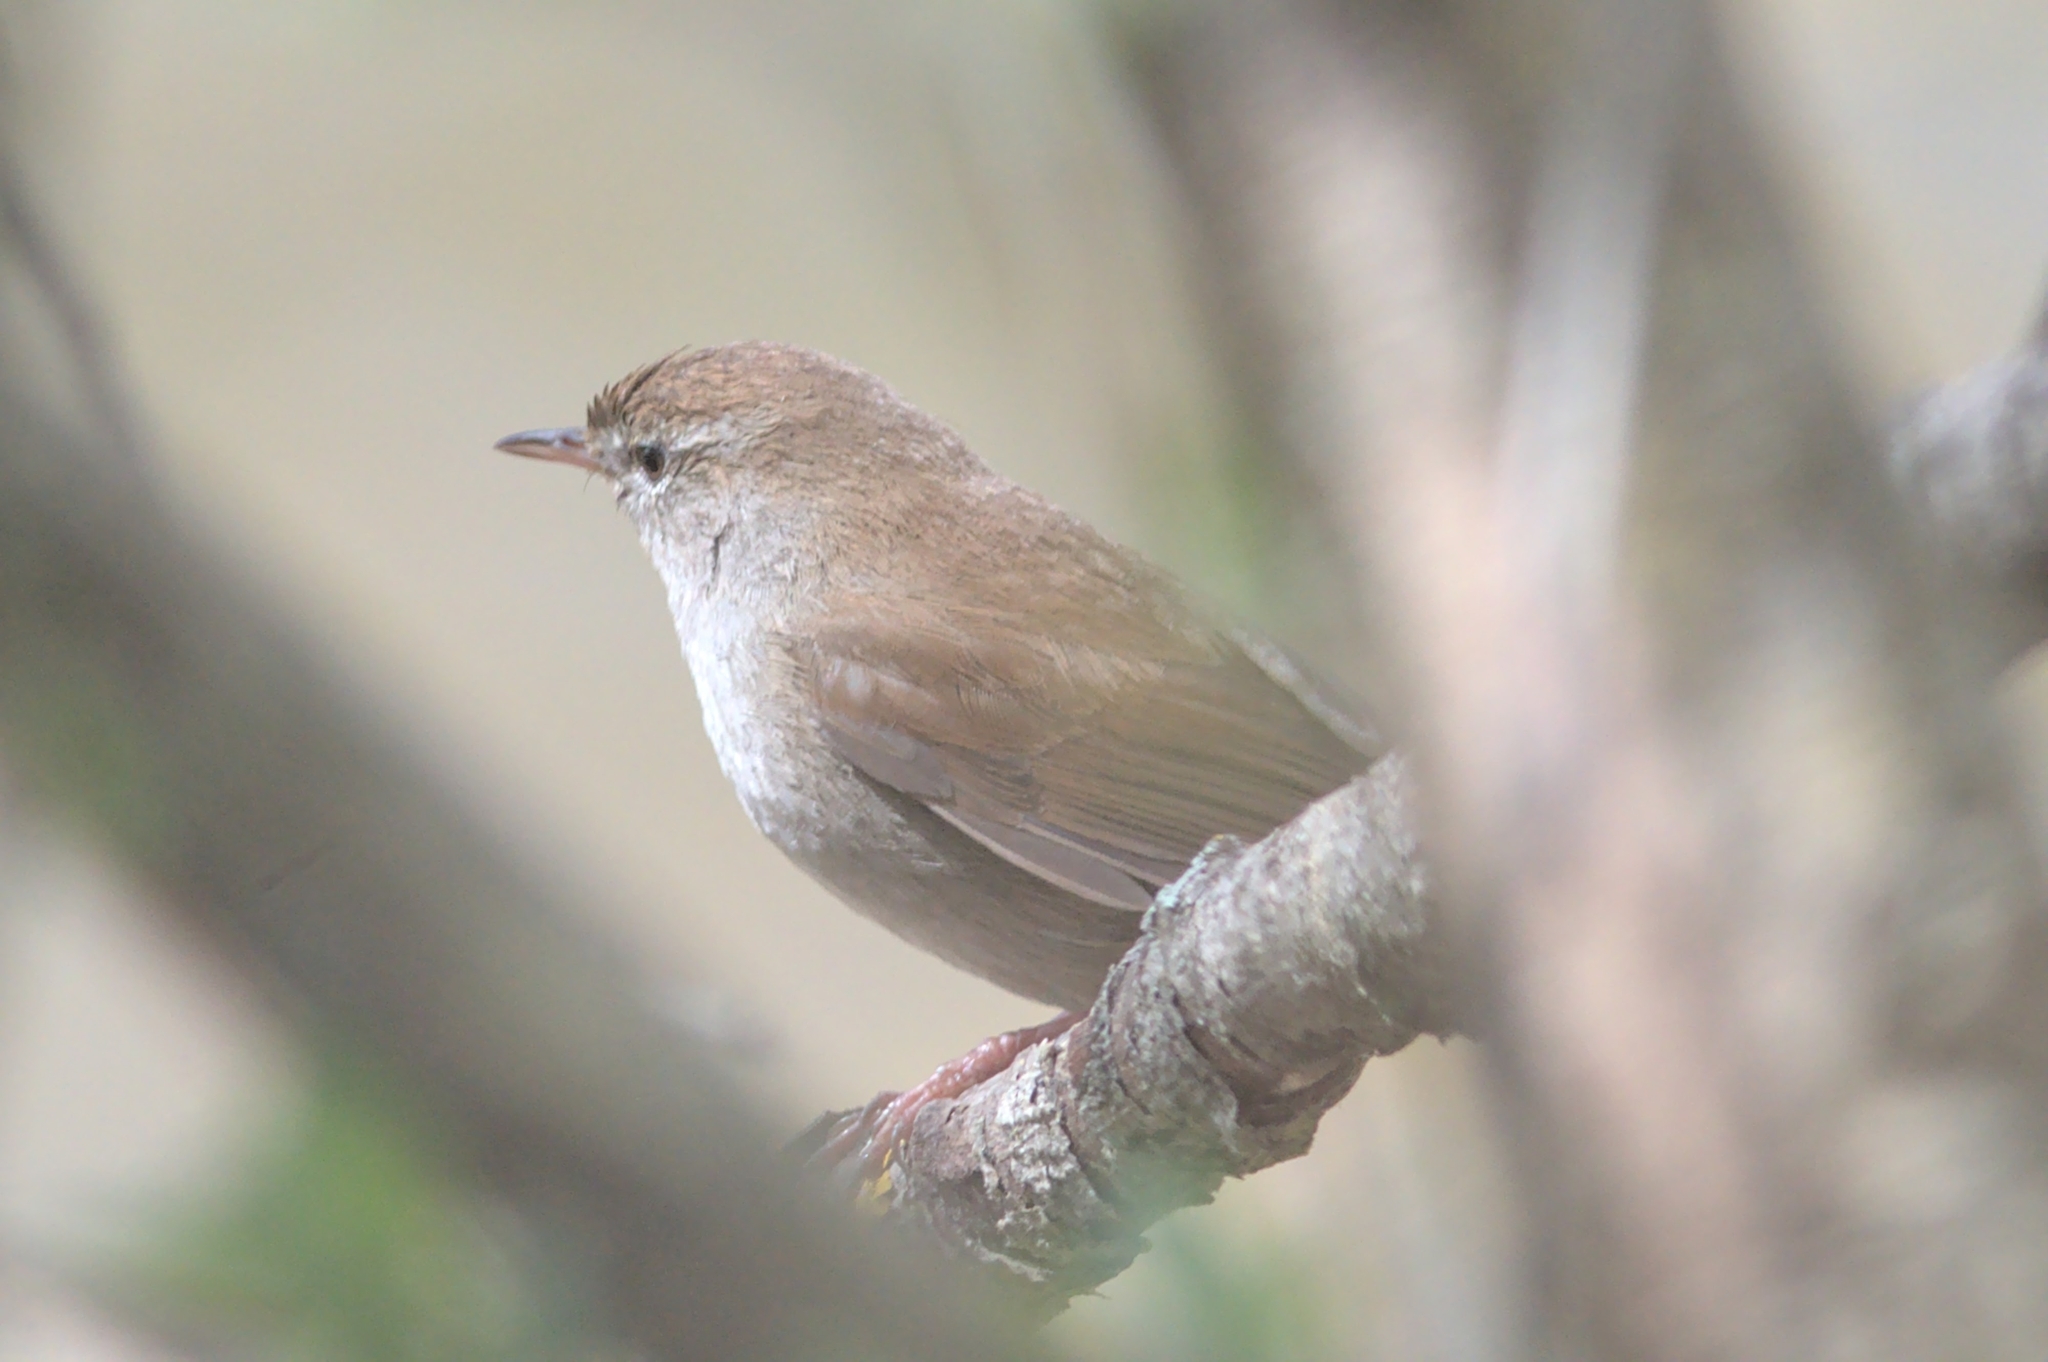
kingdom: Animalia
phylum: Chordata
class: Aves
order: Passeriformes
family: Cettiidae
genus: Cettia
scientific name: Cettia cetti
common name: Cetti's warbler
